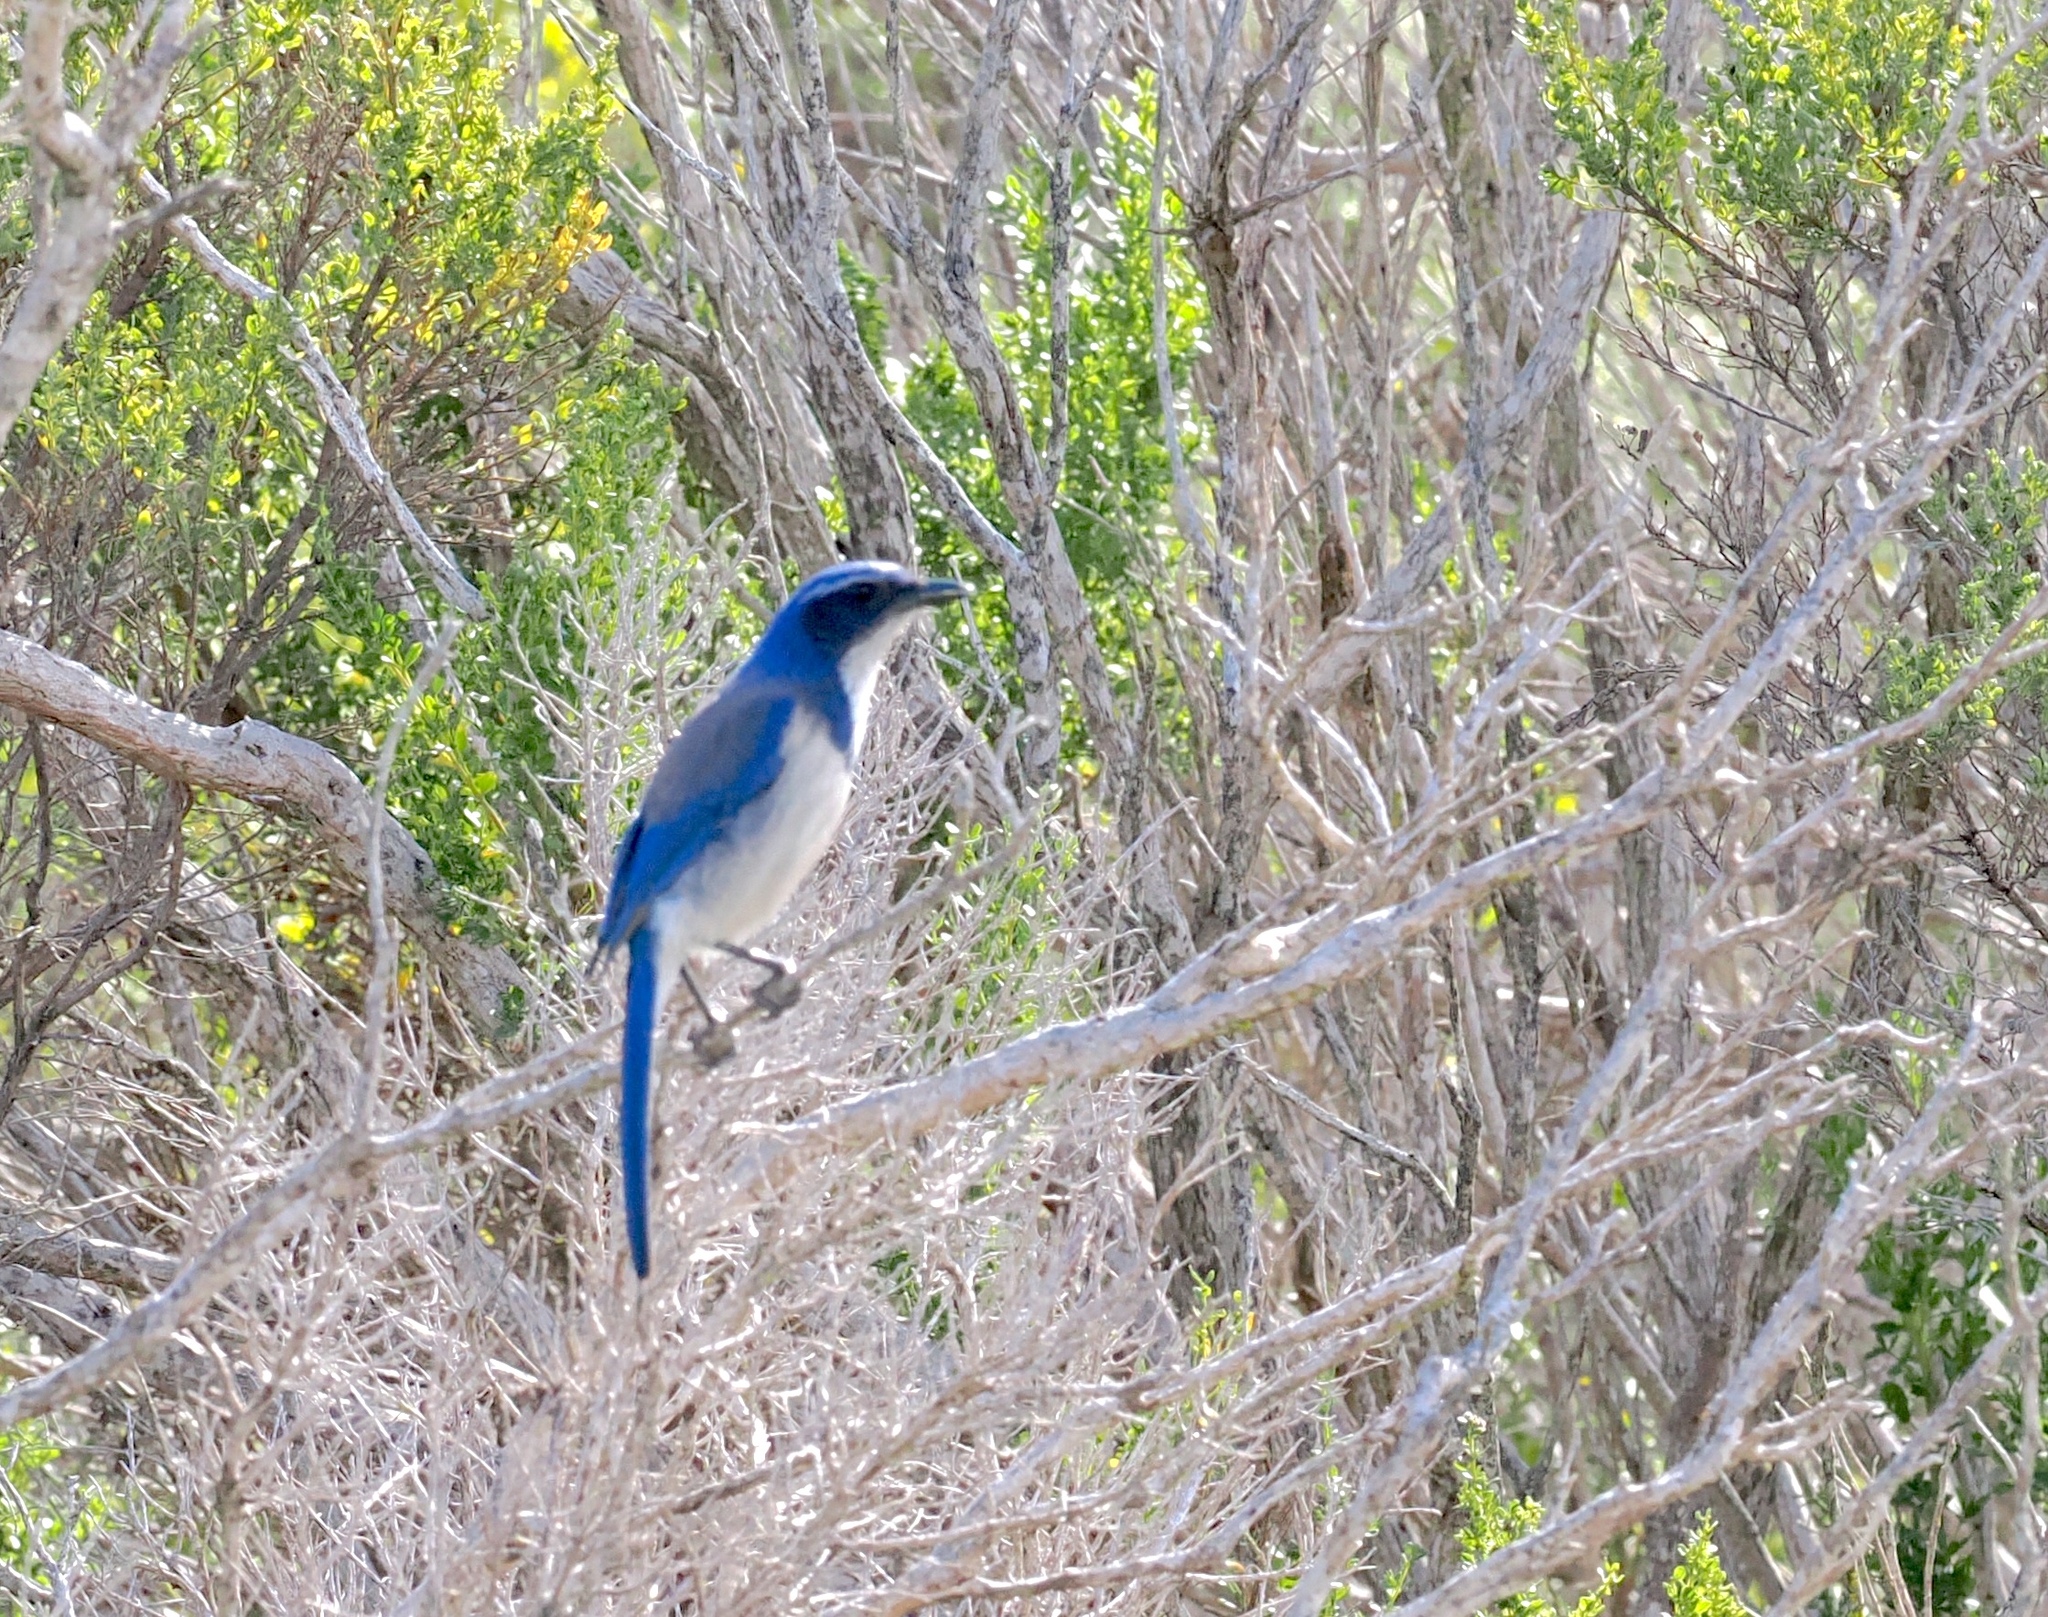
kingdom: Animalia
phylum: Chordata
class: Aves
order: Passeriformes
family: Corvidae
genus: Aphelocoma
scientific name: Aphelocoma californica
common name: California scrub-jay
